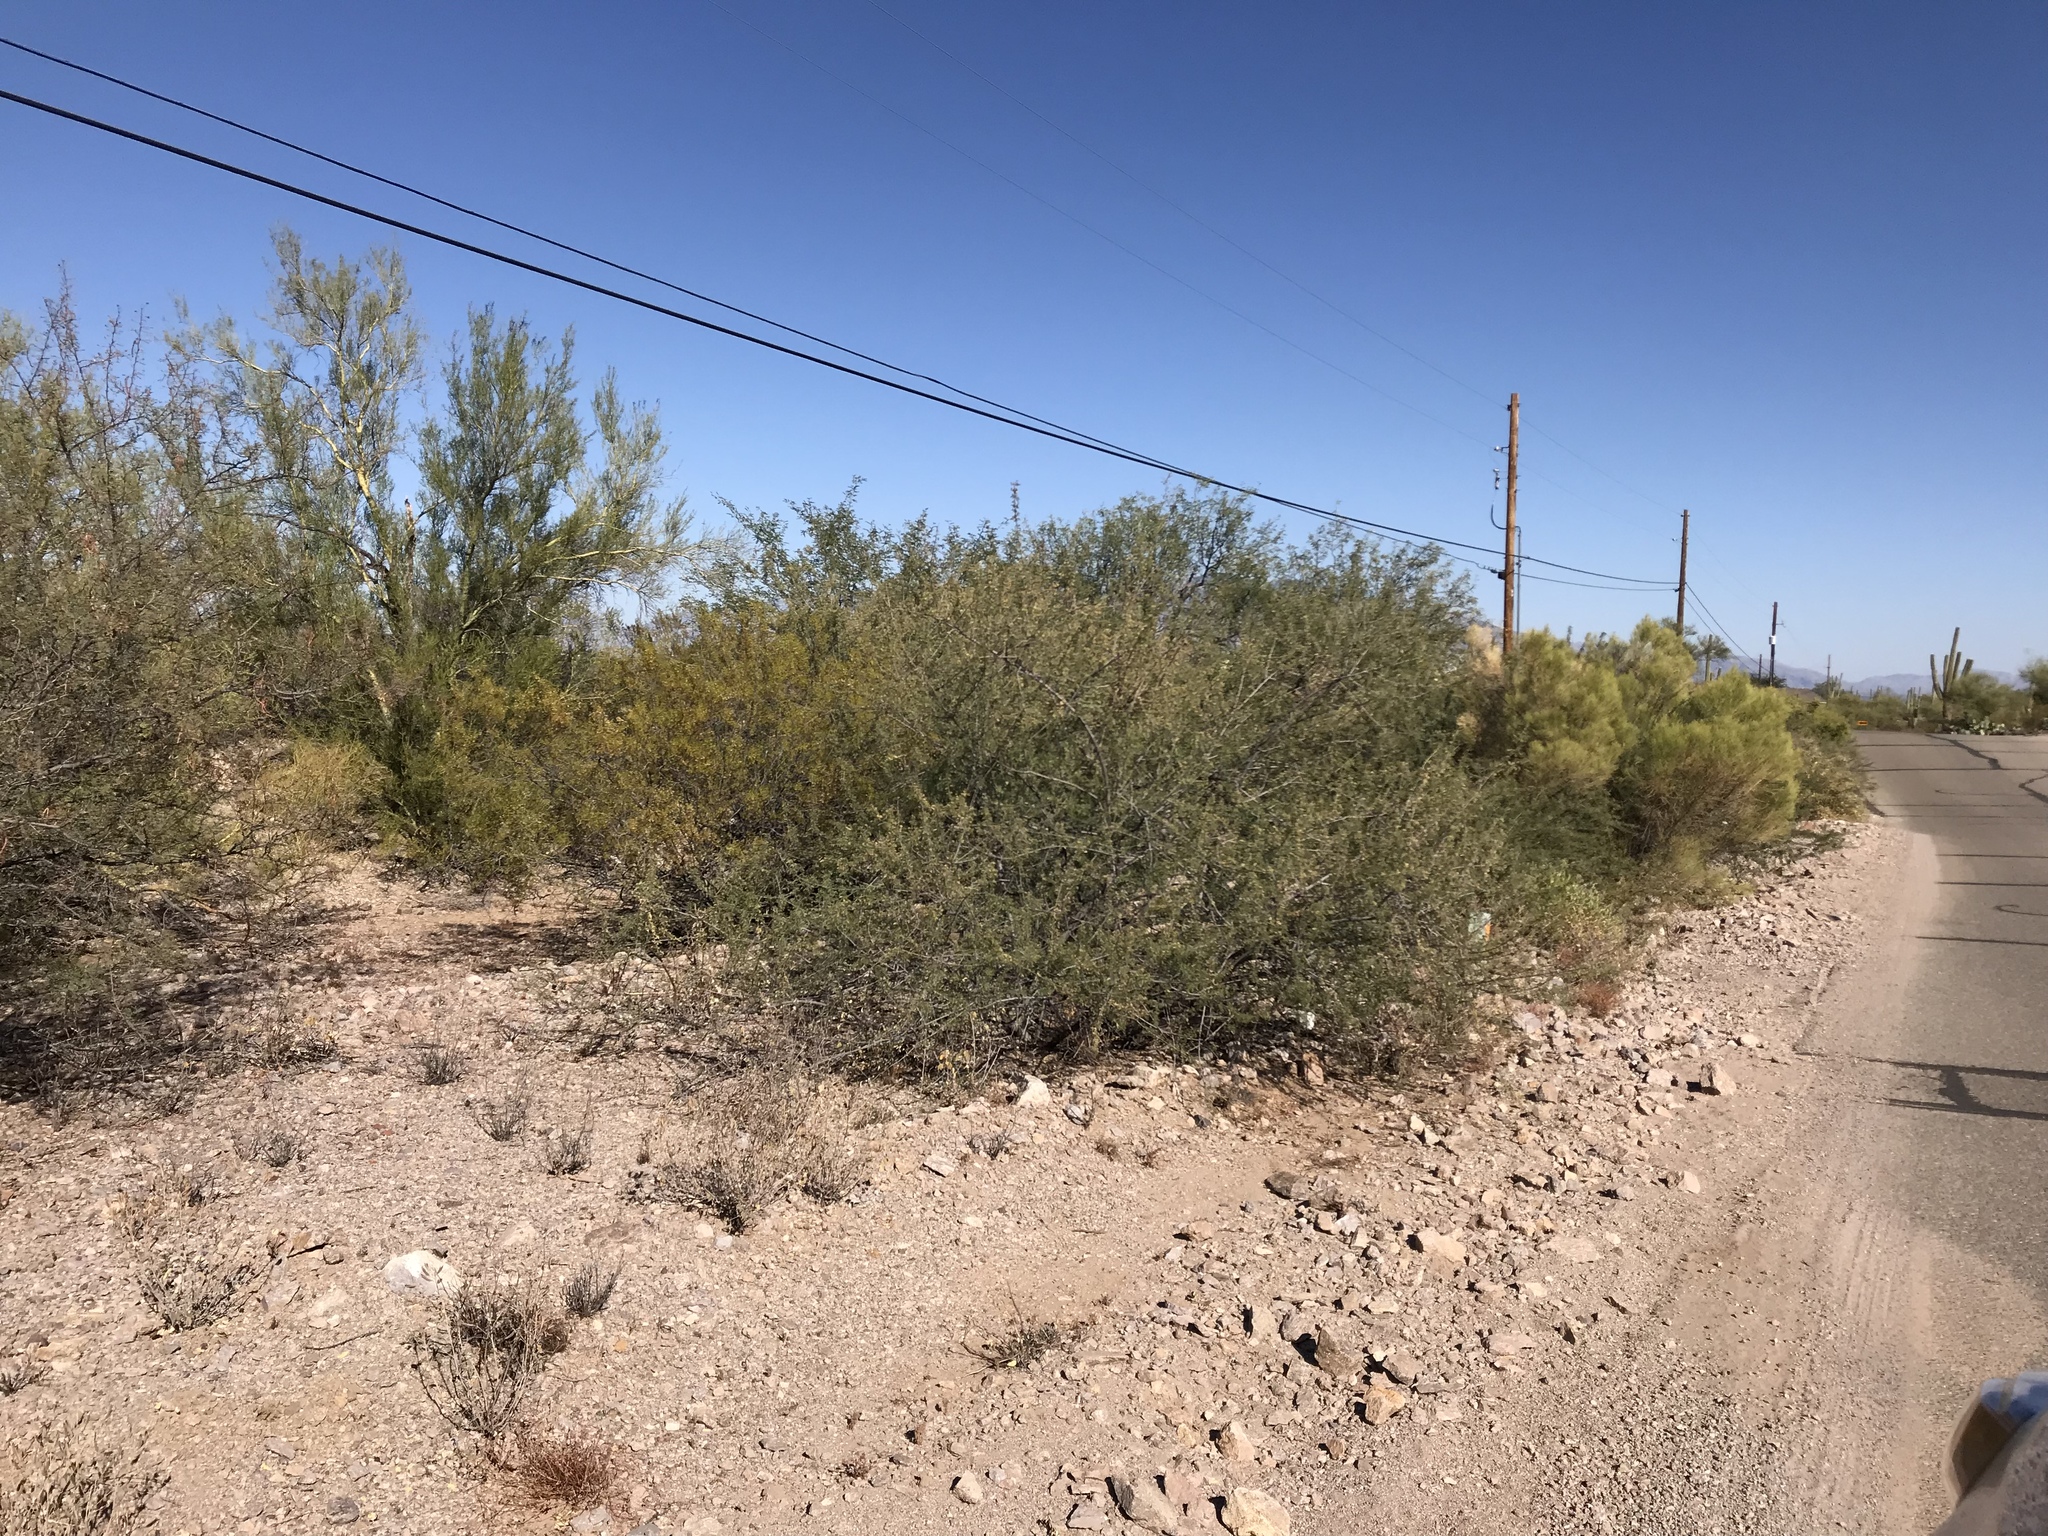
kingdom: Plantae
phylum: Tracheophyta
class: Magnoliopsida
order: Zygophyllales
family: Zygophyllaceae
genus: Larrea
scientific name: Larrea tridentata
